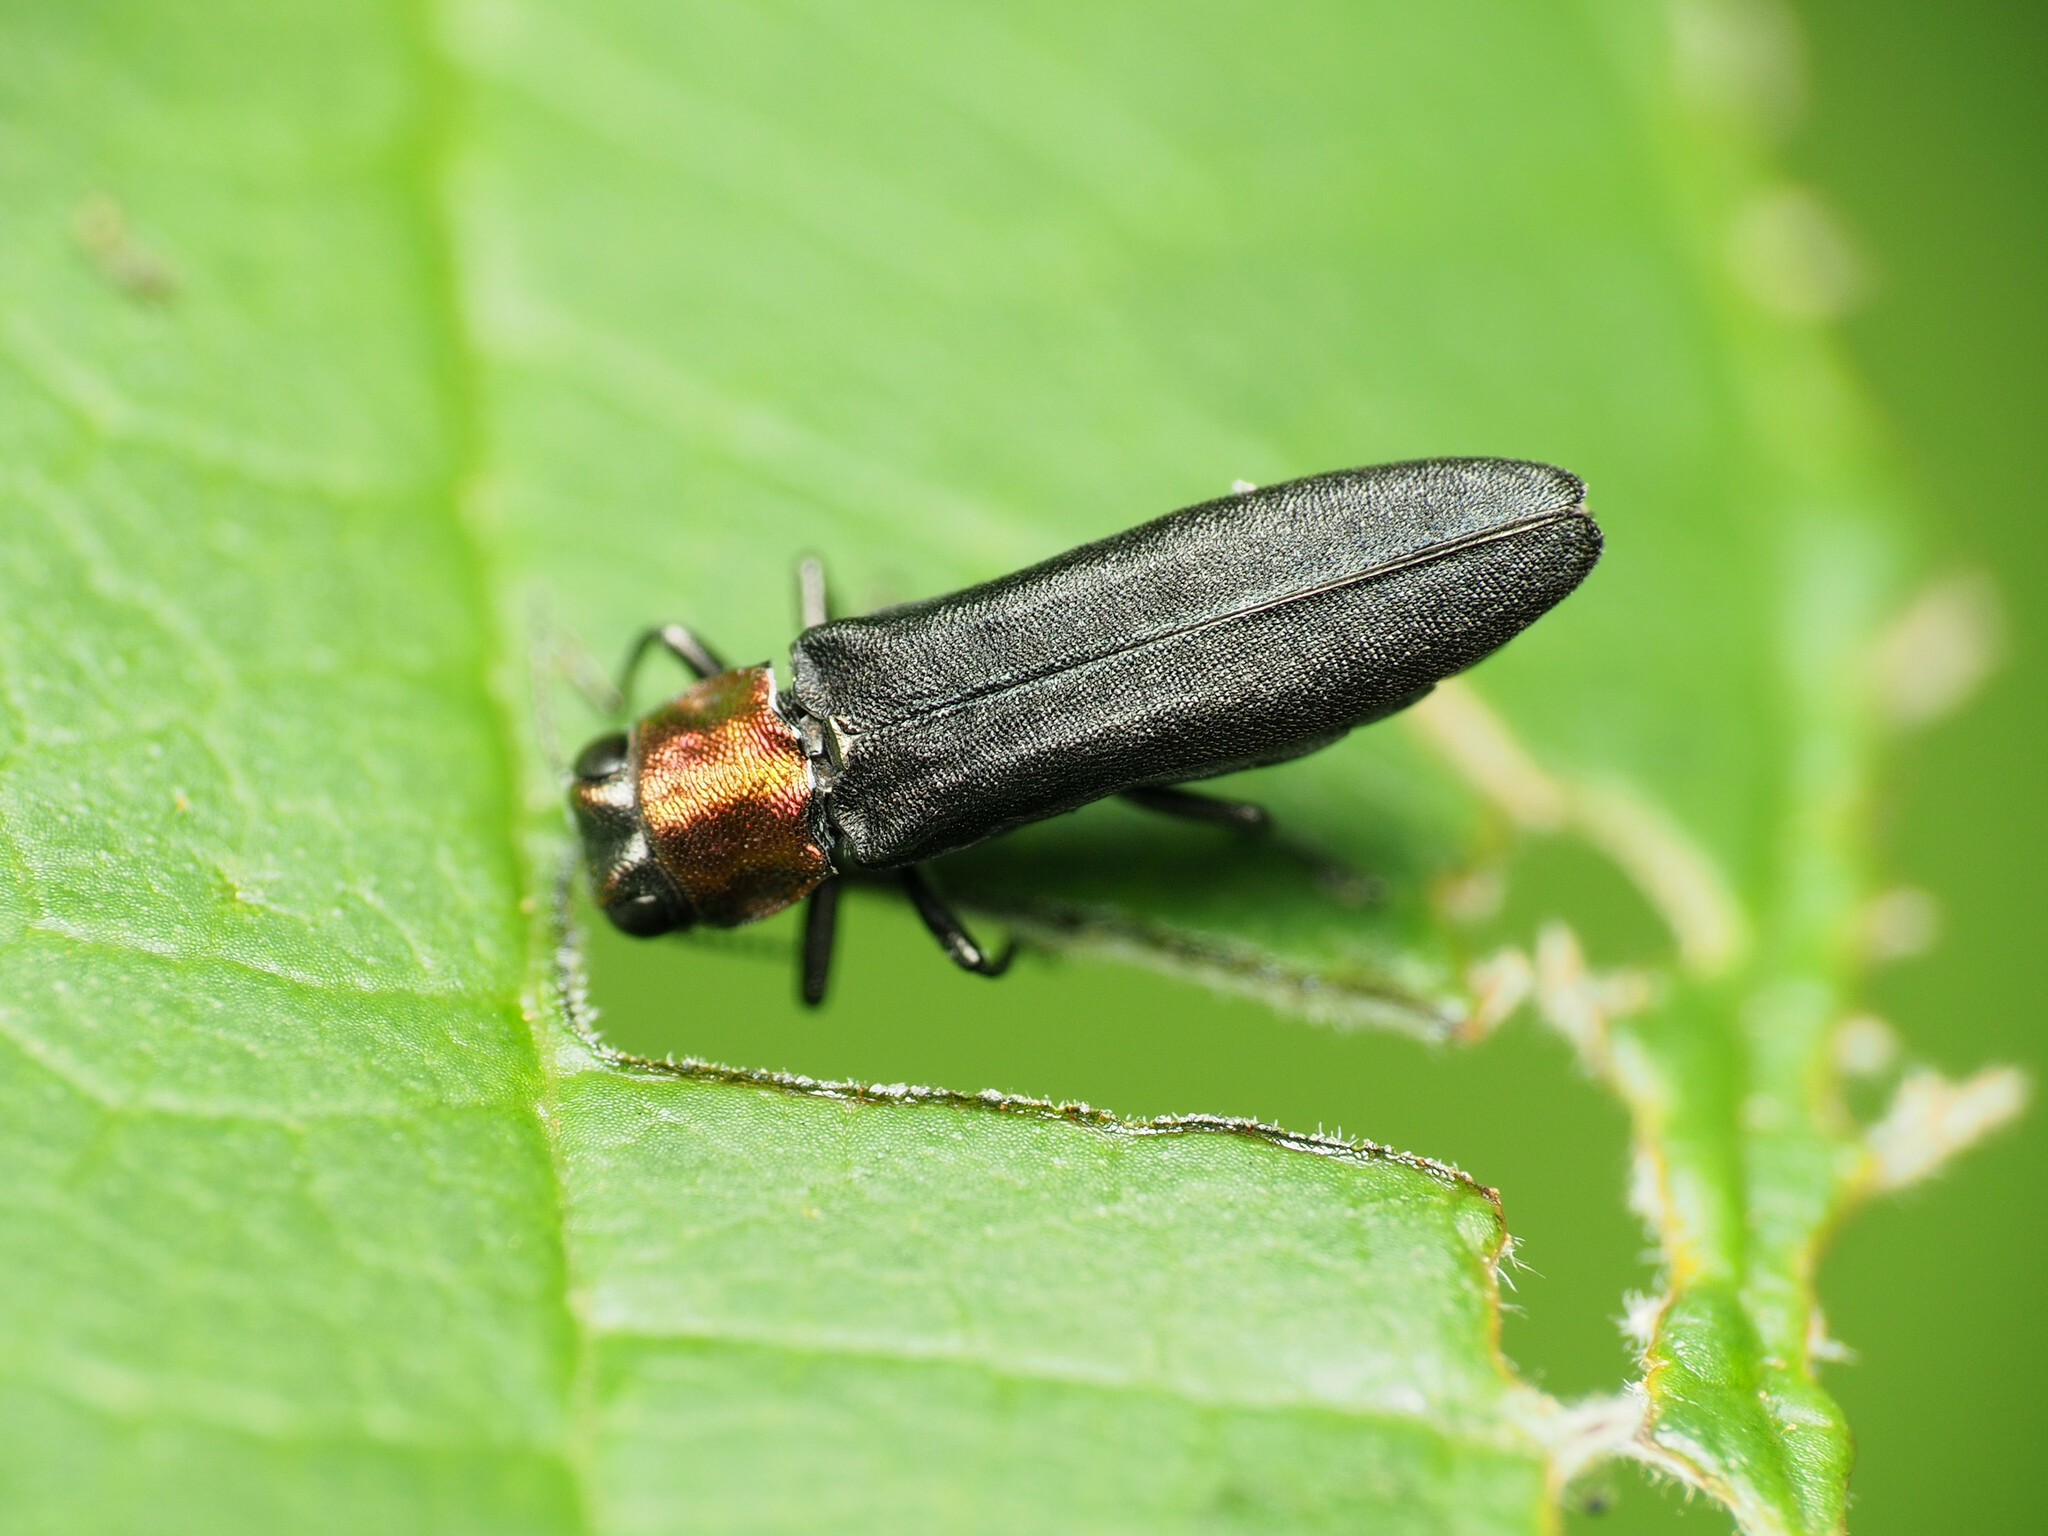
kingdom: Animalia
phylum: Arthropoda
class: Insecta
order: Coleoptera
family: Buprestidae
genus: Agrilus
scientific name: Agrilus ruficollis
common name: Red-necked cane borer beetle
